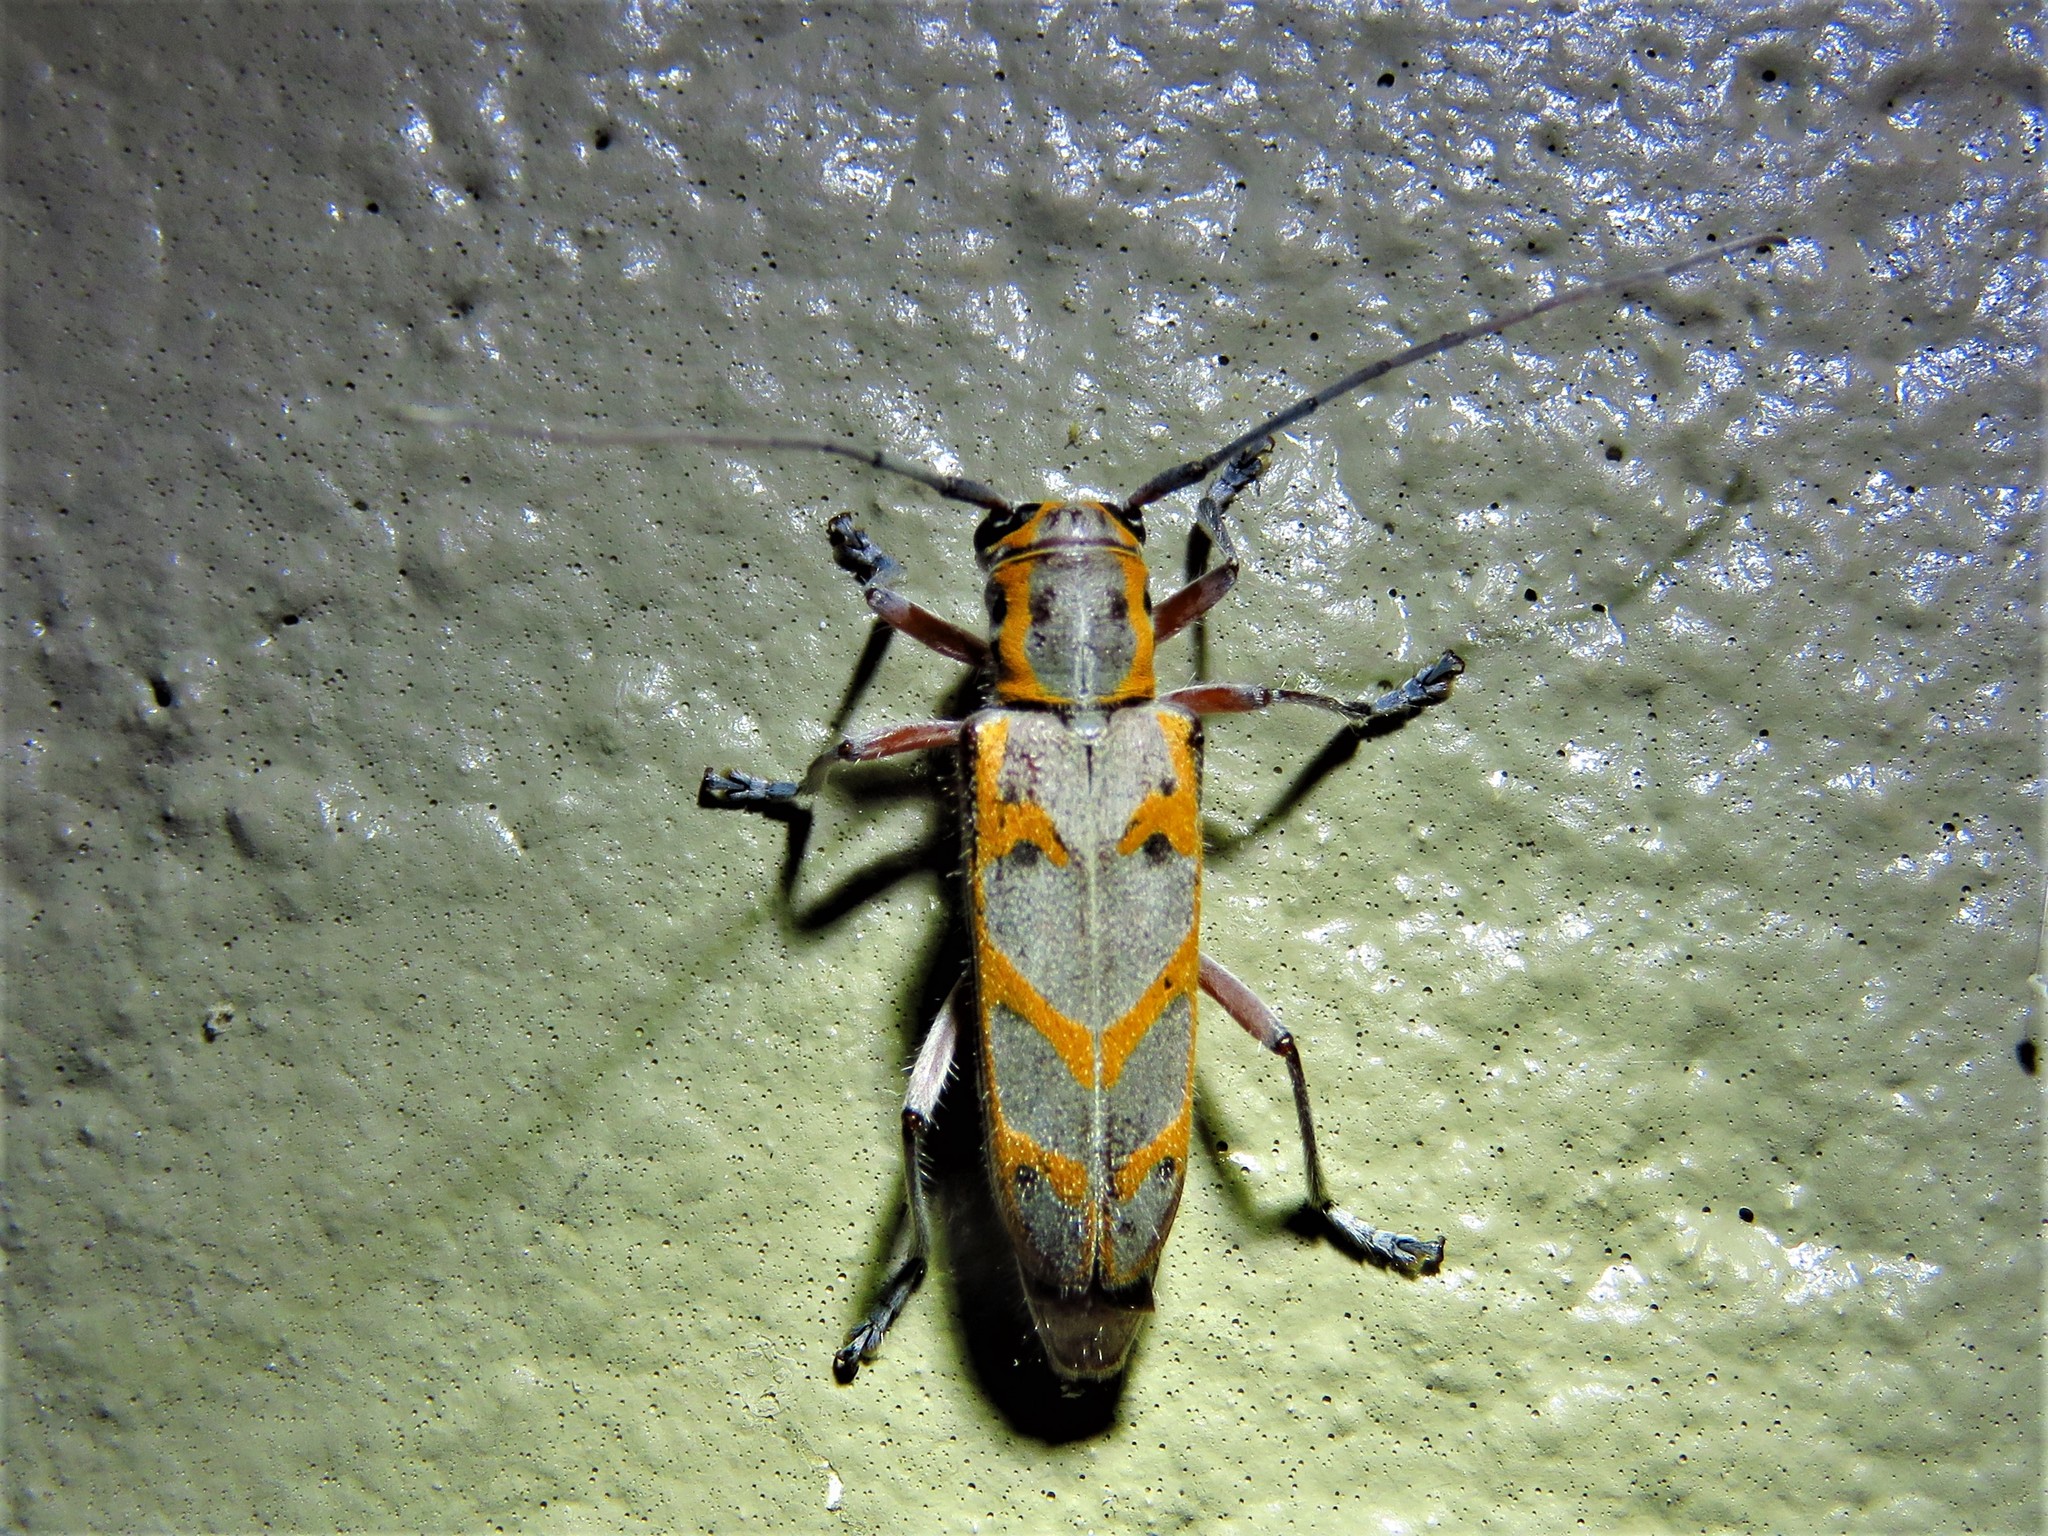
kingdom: Animalia
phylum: Arthropoda
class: Insecta
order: Coleoptera
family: Cerambycidae
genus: Saperda
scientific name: Saperda tridentata
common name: Elm borer
